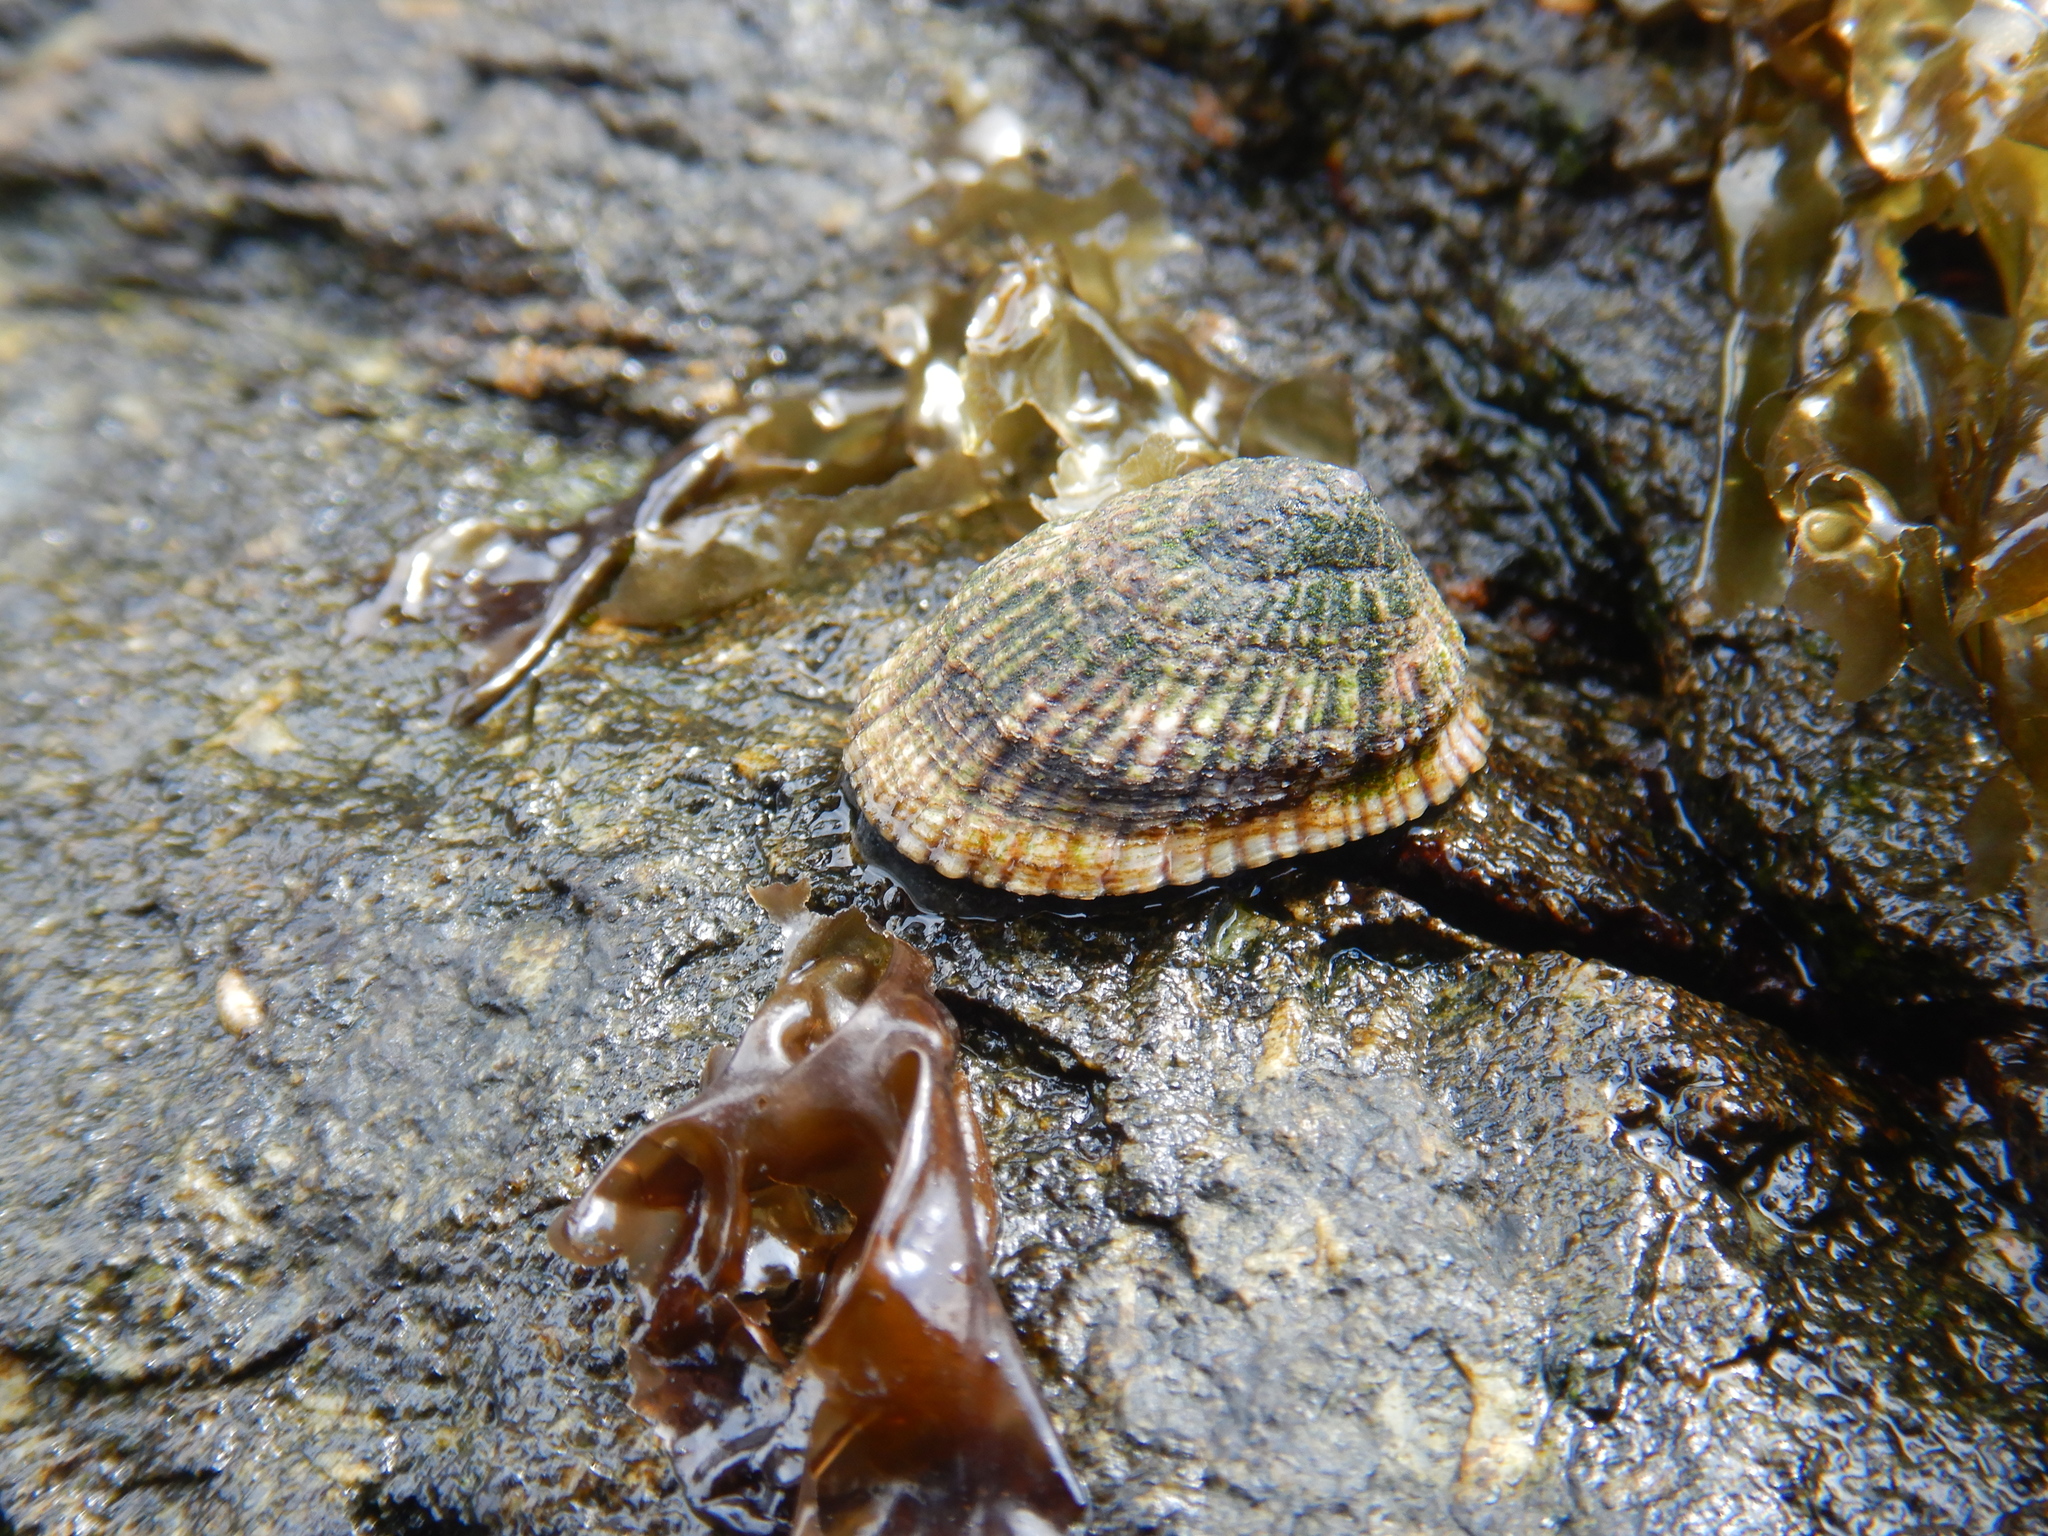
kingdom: Animalia
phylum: Mollusca
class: Gastropoda
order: Siphonariida
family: Siphonariidae
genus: Siphonaria
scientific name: Siphonaria lessonii
